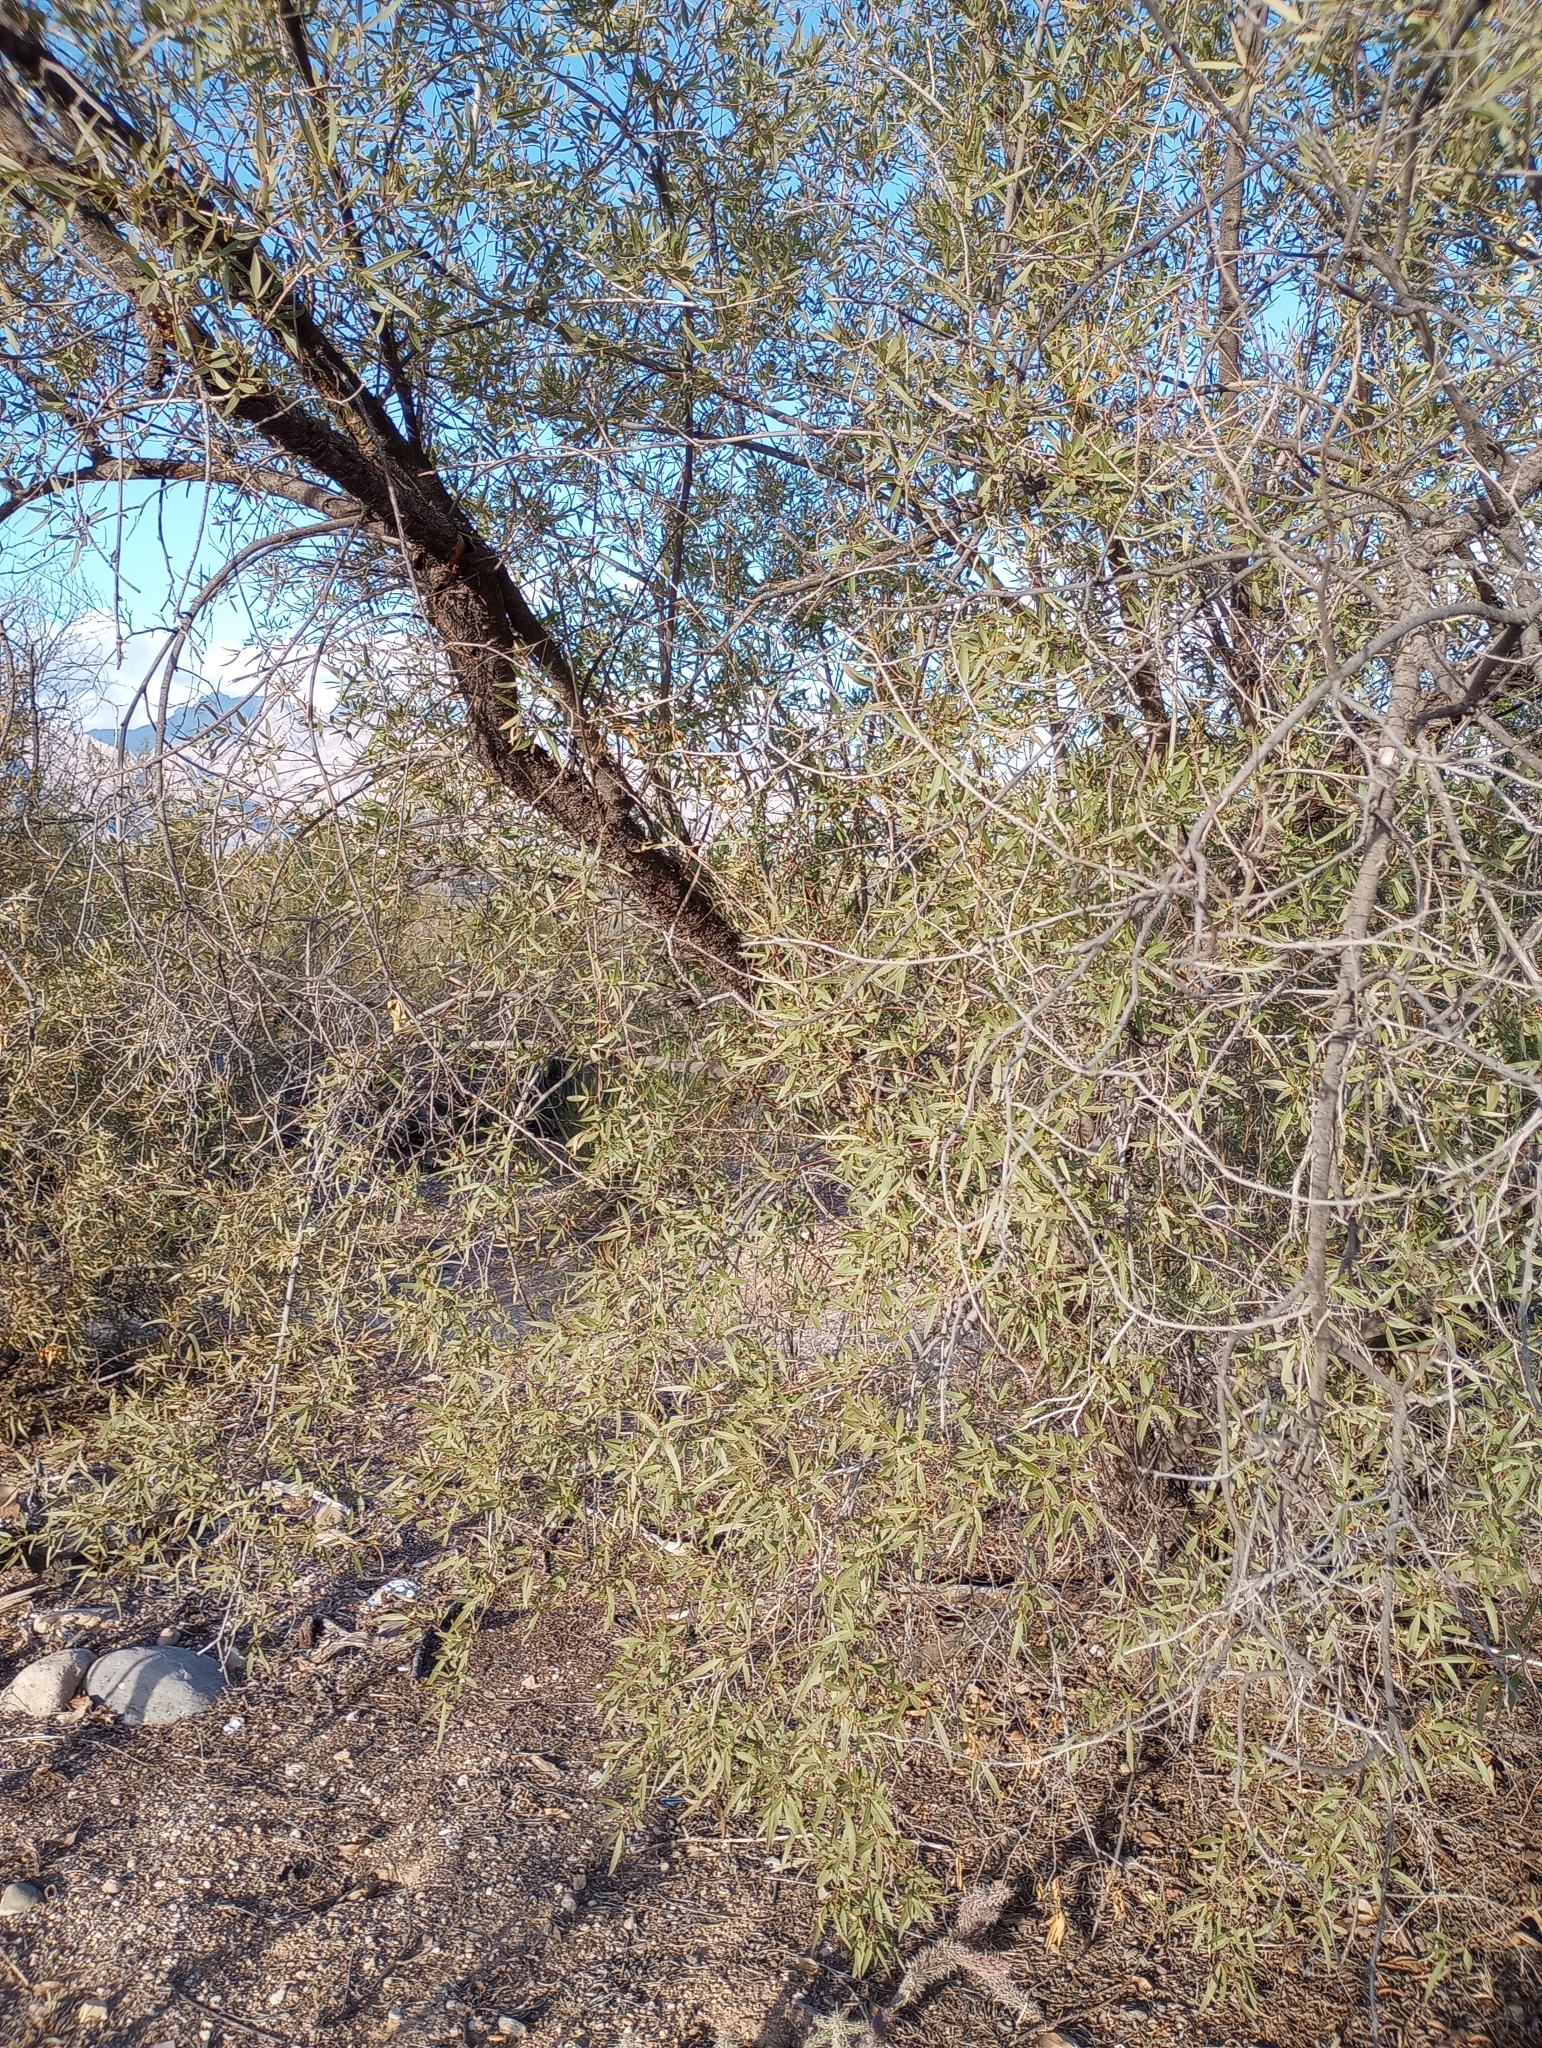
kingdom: Plantae
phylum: Tracheophyta
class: Magnoliopsida
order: Sapindales
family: Anacardiaceae
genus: Searsia
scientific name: Searsia lancea
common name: Cashew
